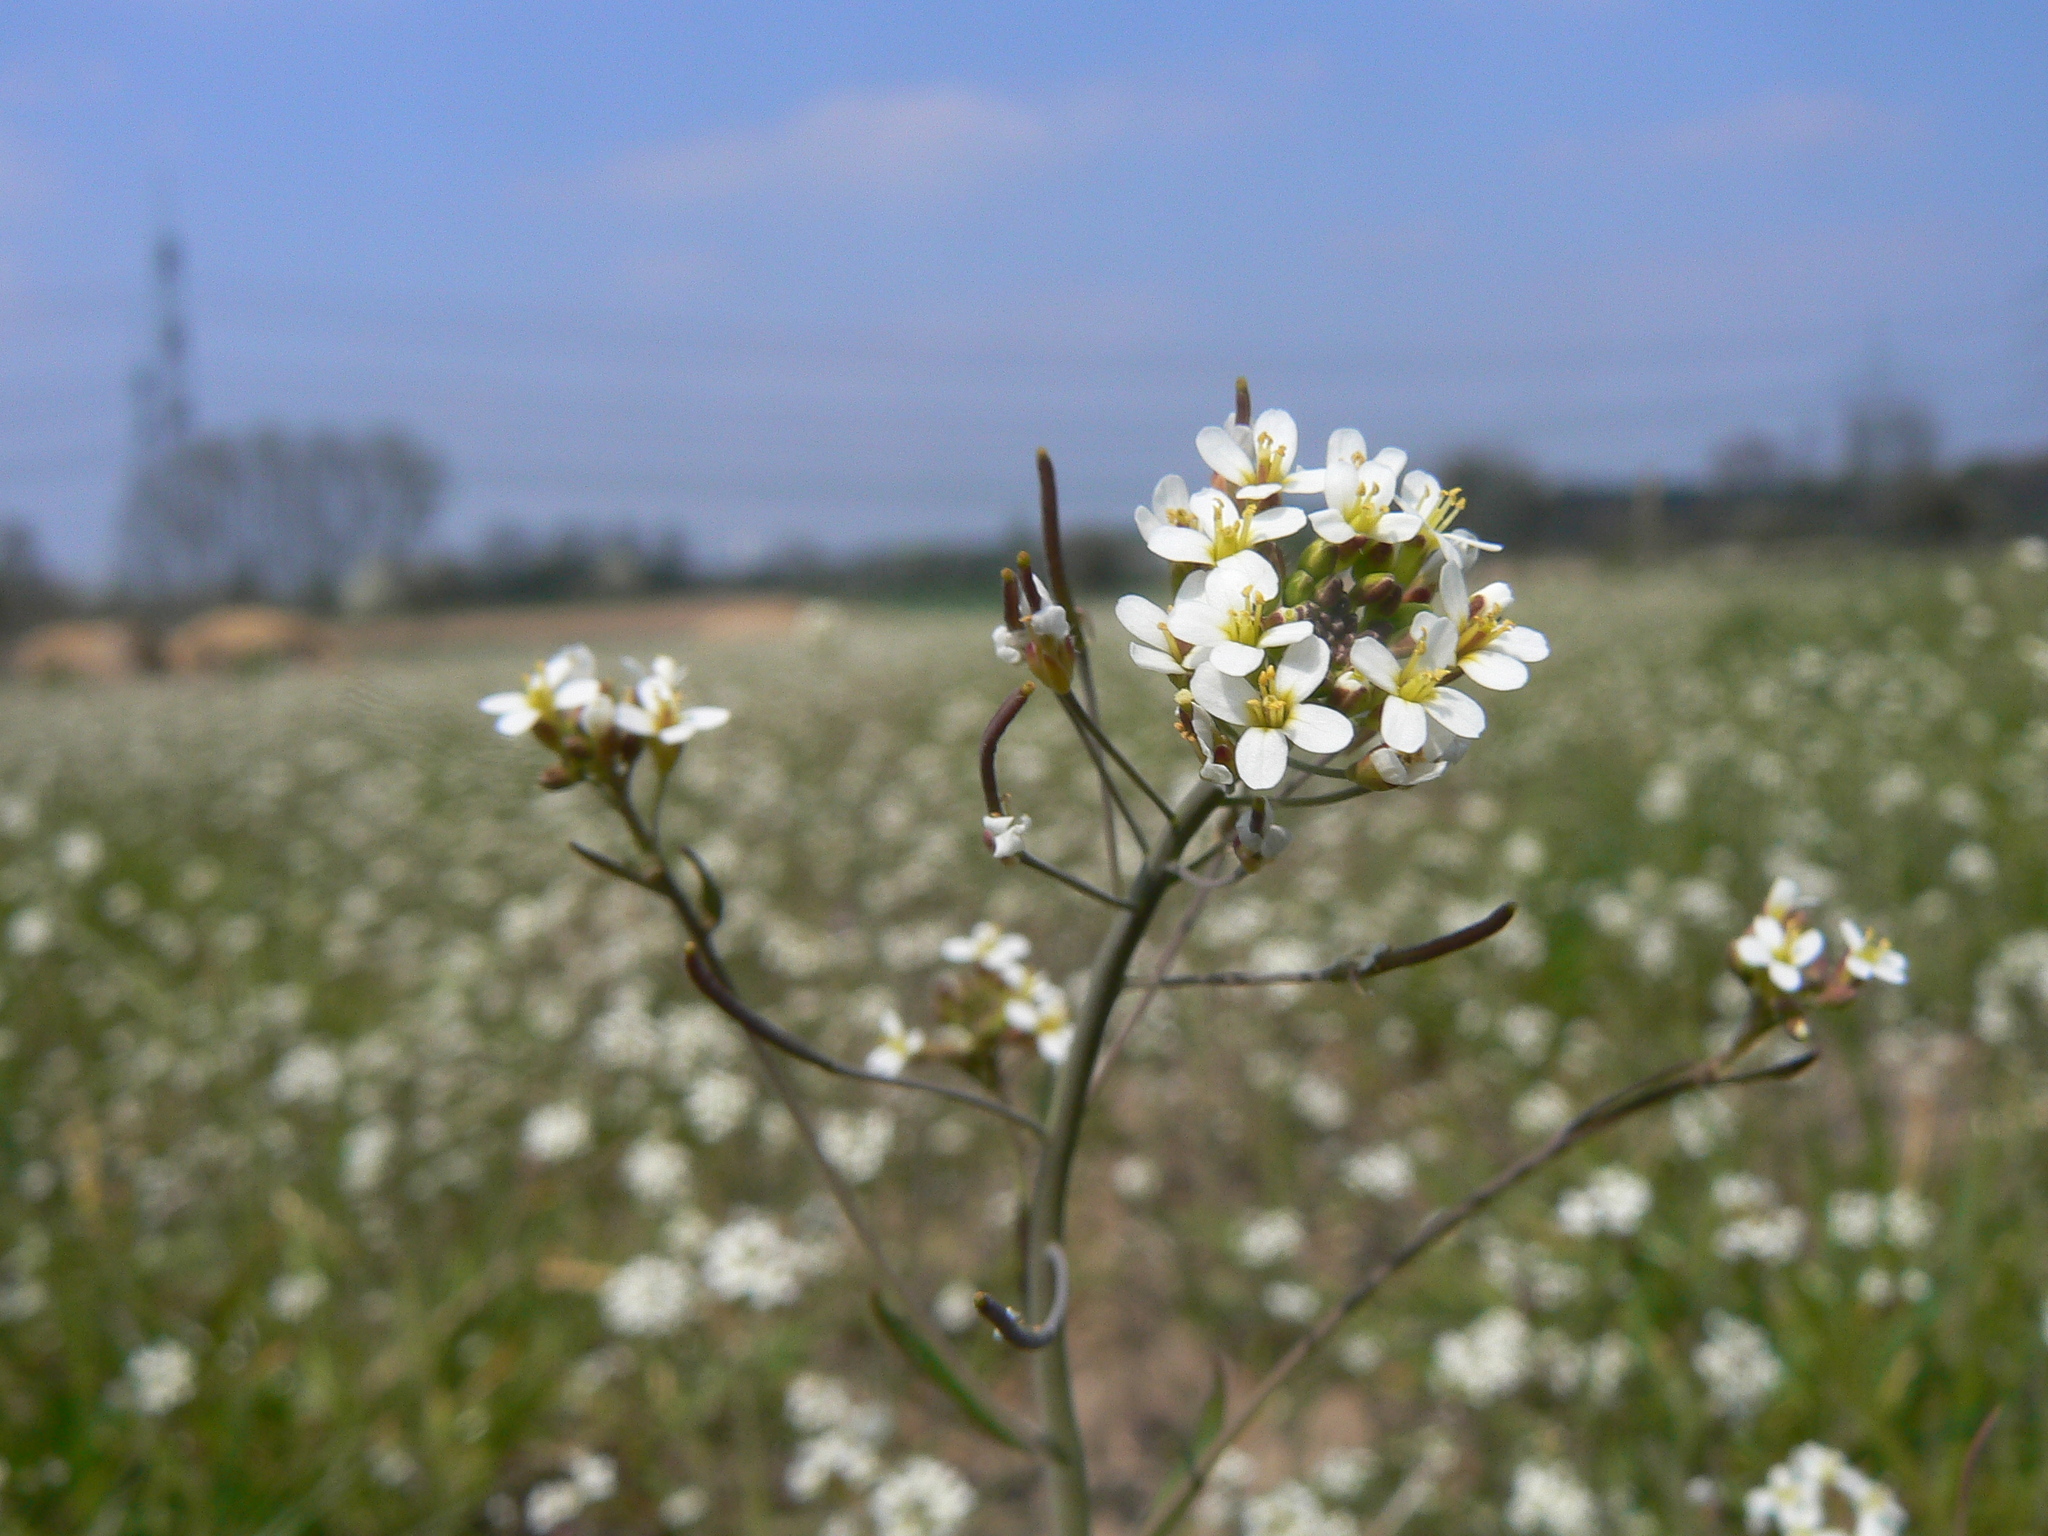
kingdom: Plantae
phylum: Tracheophyta
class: Magnoliopsida
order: Brassicales
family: Brassicaceae
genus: Arabidopsis
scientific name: Arabidopsis thaliana
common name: Thale cress
